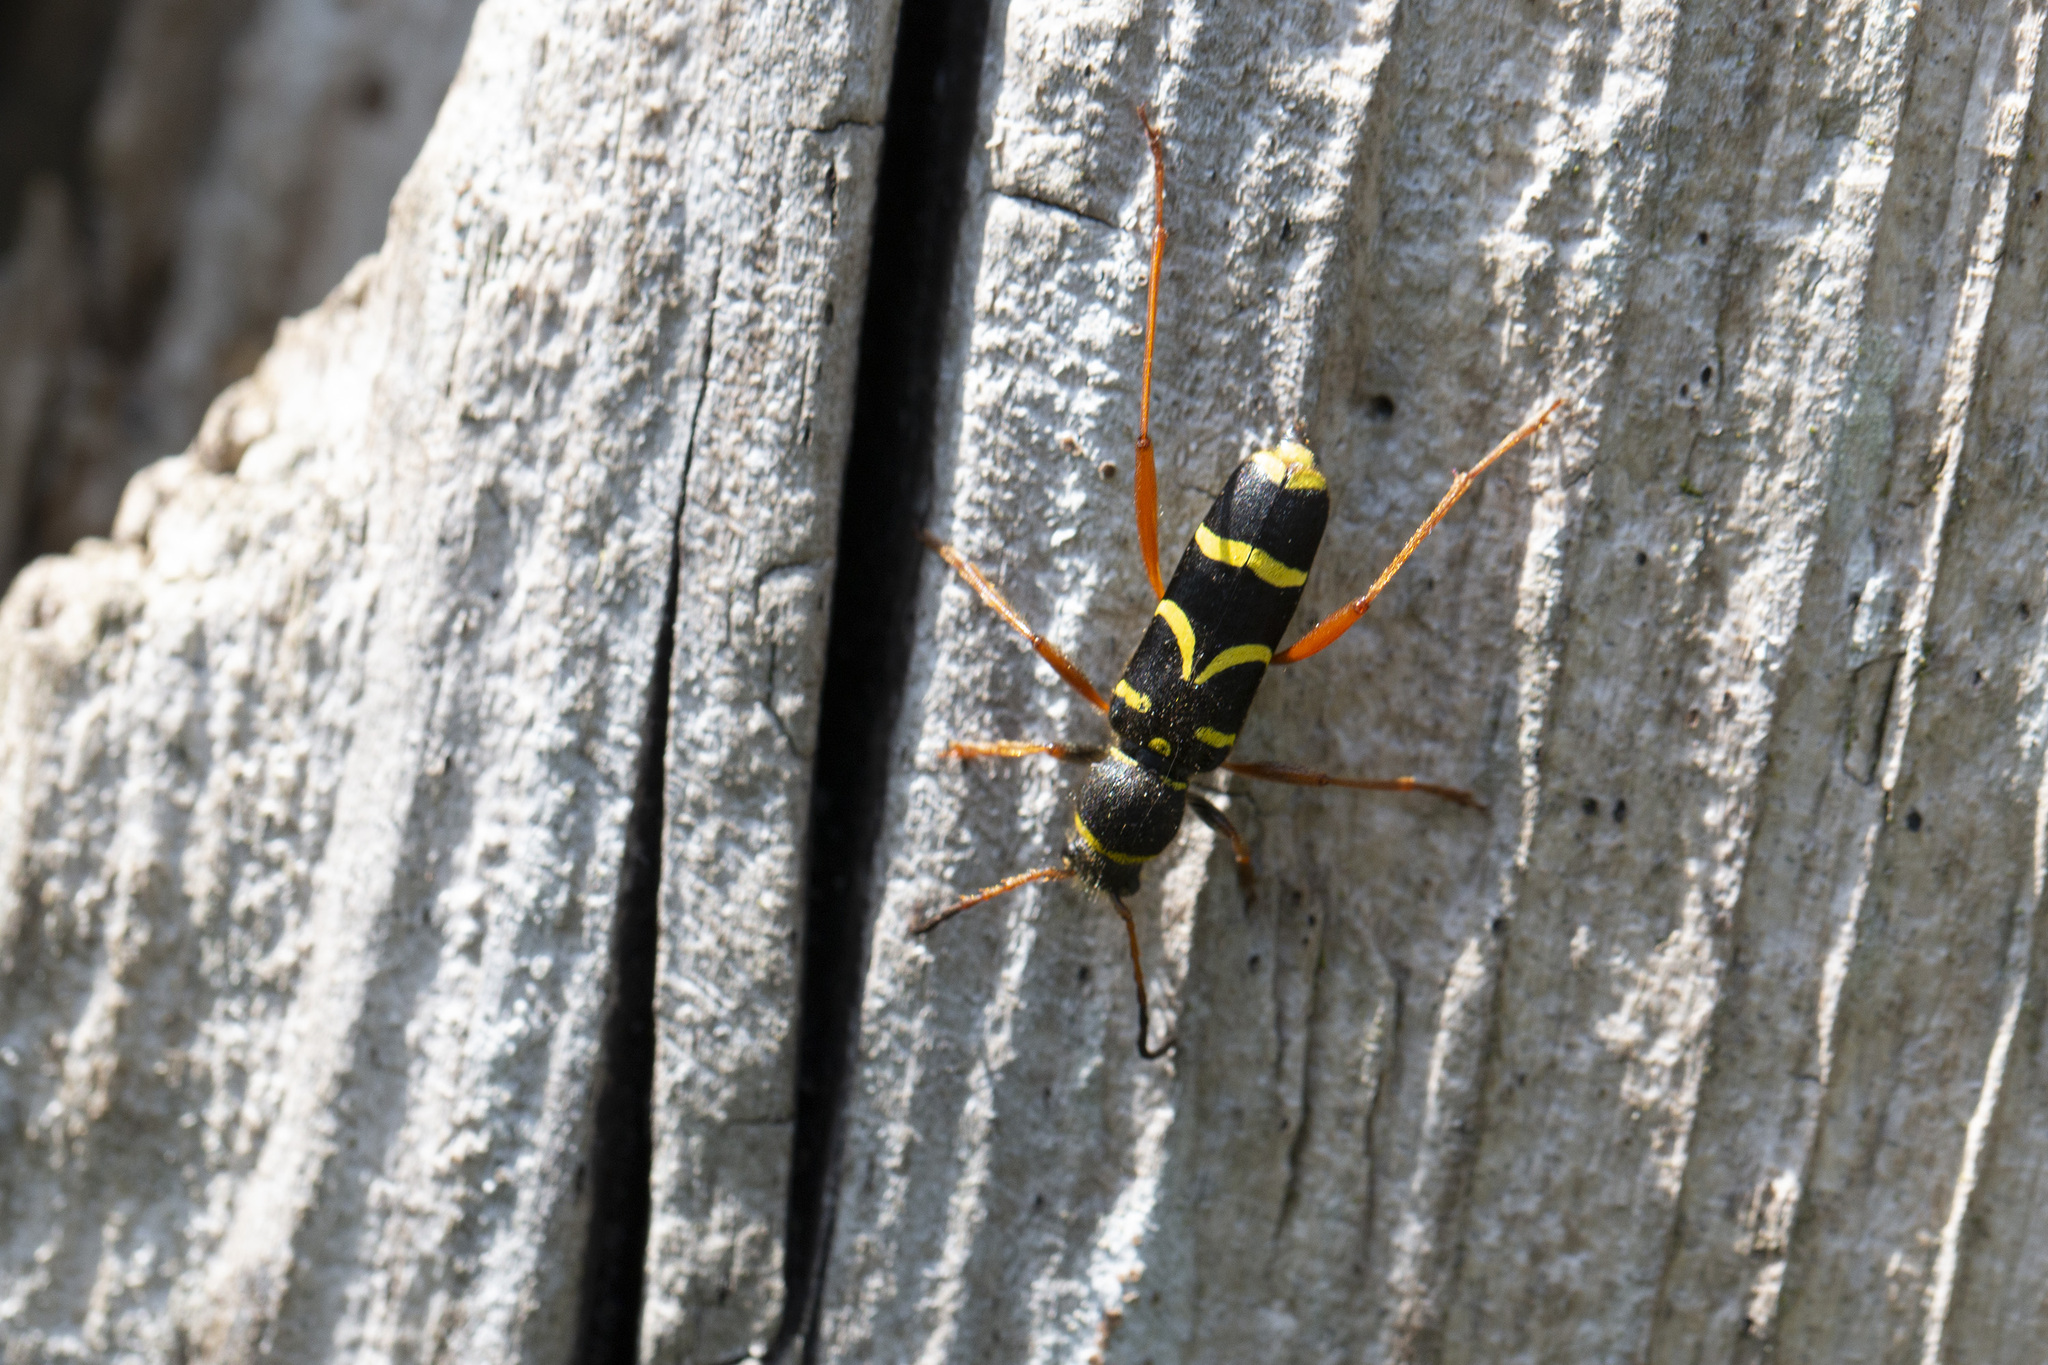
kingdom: Animalia
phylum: Arthropoda
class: Insecta
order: Coleoptera
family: Cerambycidae
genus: Clytus
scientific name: Clytus arietis
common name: Wasp beetle
